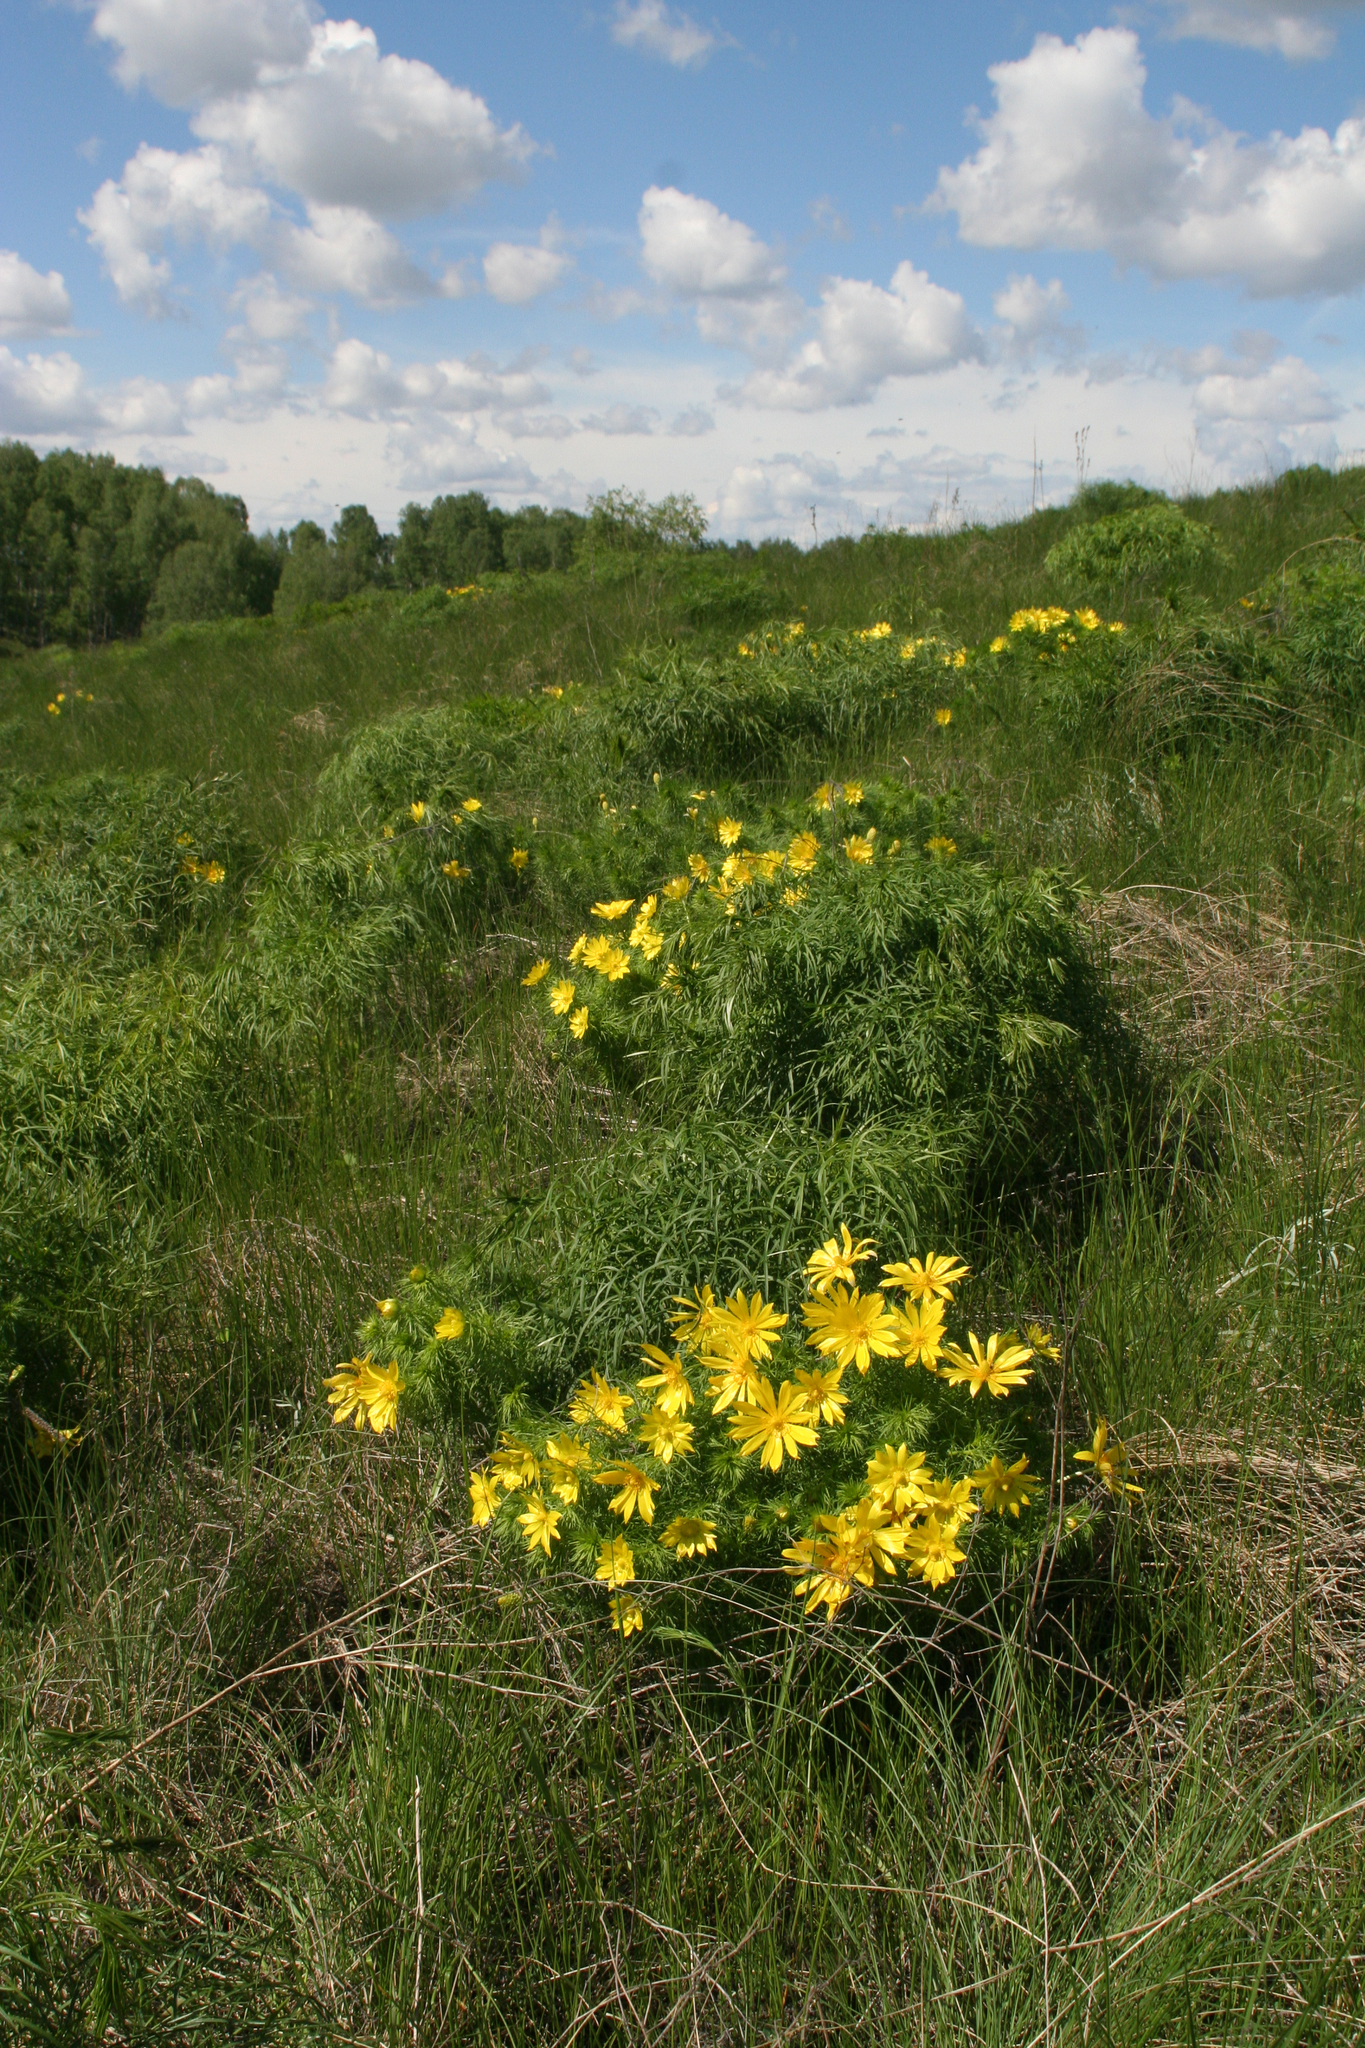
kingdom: Plantae
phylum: Tracheophyta
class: Magnoliopsida
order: Ranunculales
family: Ranunculaceae
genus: Adonis
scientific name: Adonis vernalis
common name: Yellow pheasants-eye
